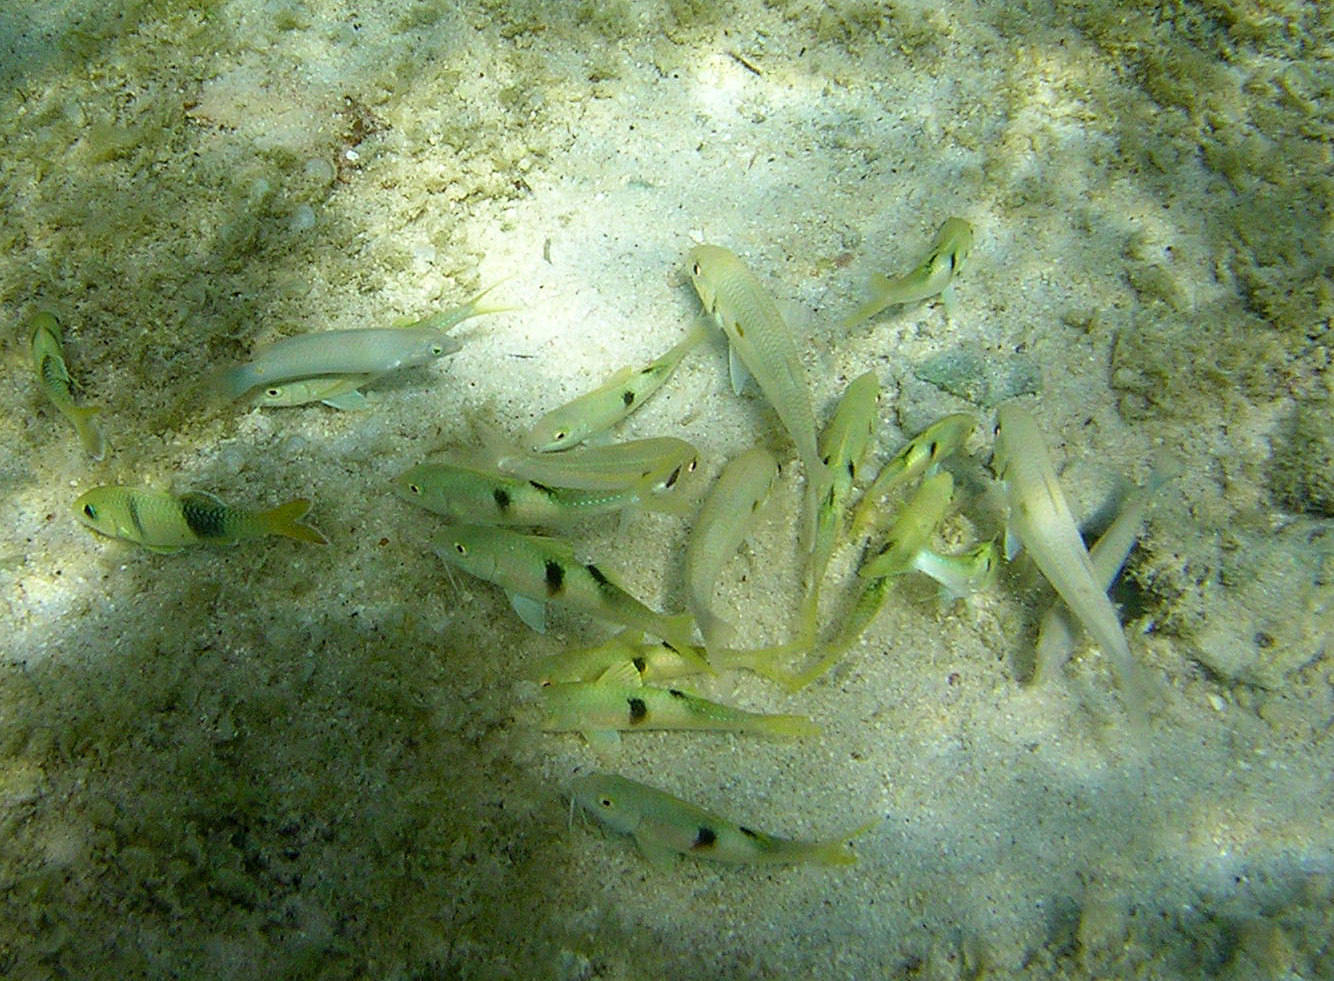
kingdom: Animalia
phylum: Chordata
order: Perciformes
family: Mullidae
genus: Mulloidichthys
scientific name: Mulloidichthys flavolineatus
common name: Yellowstripe goatfish
